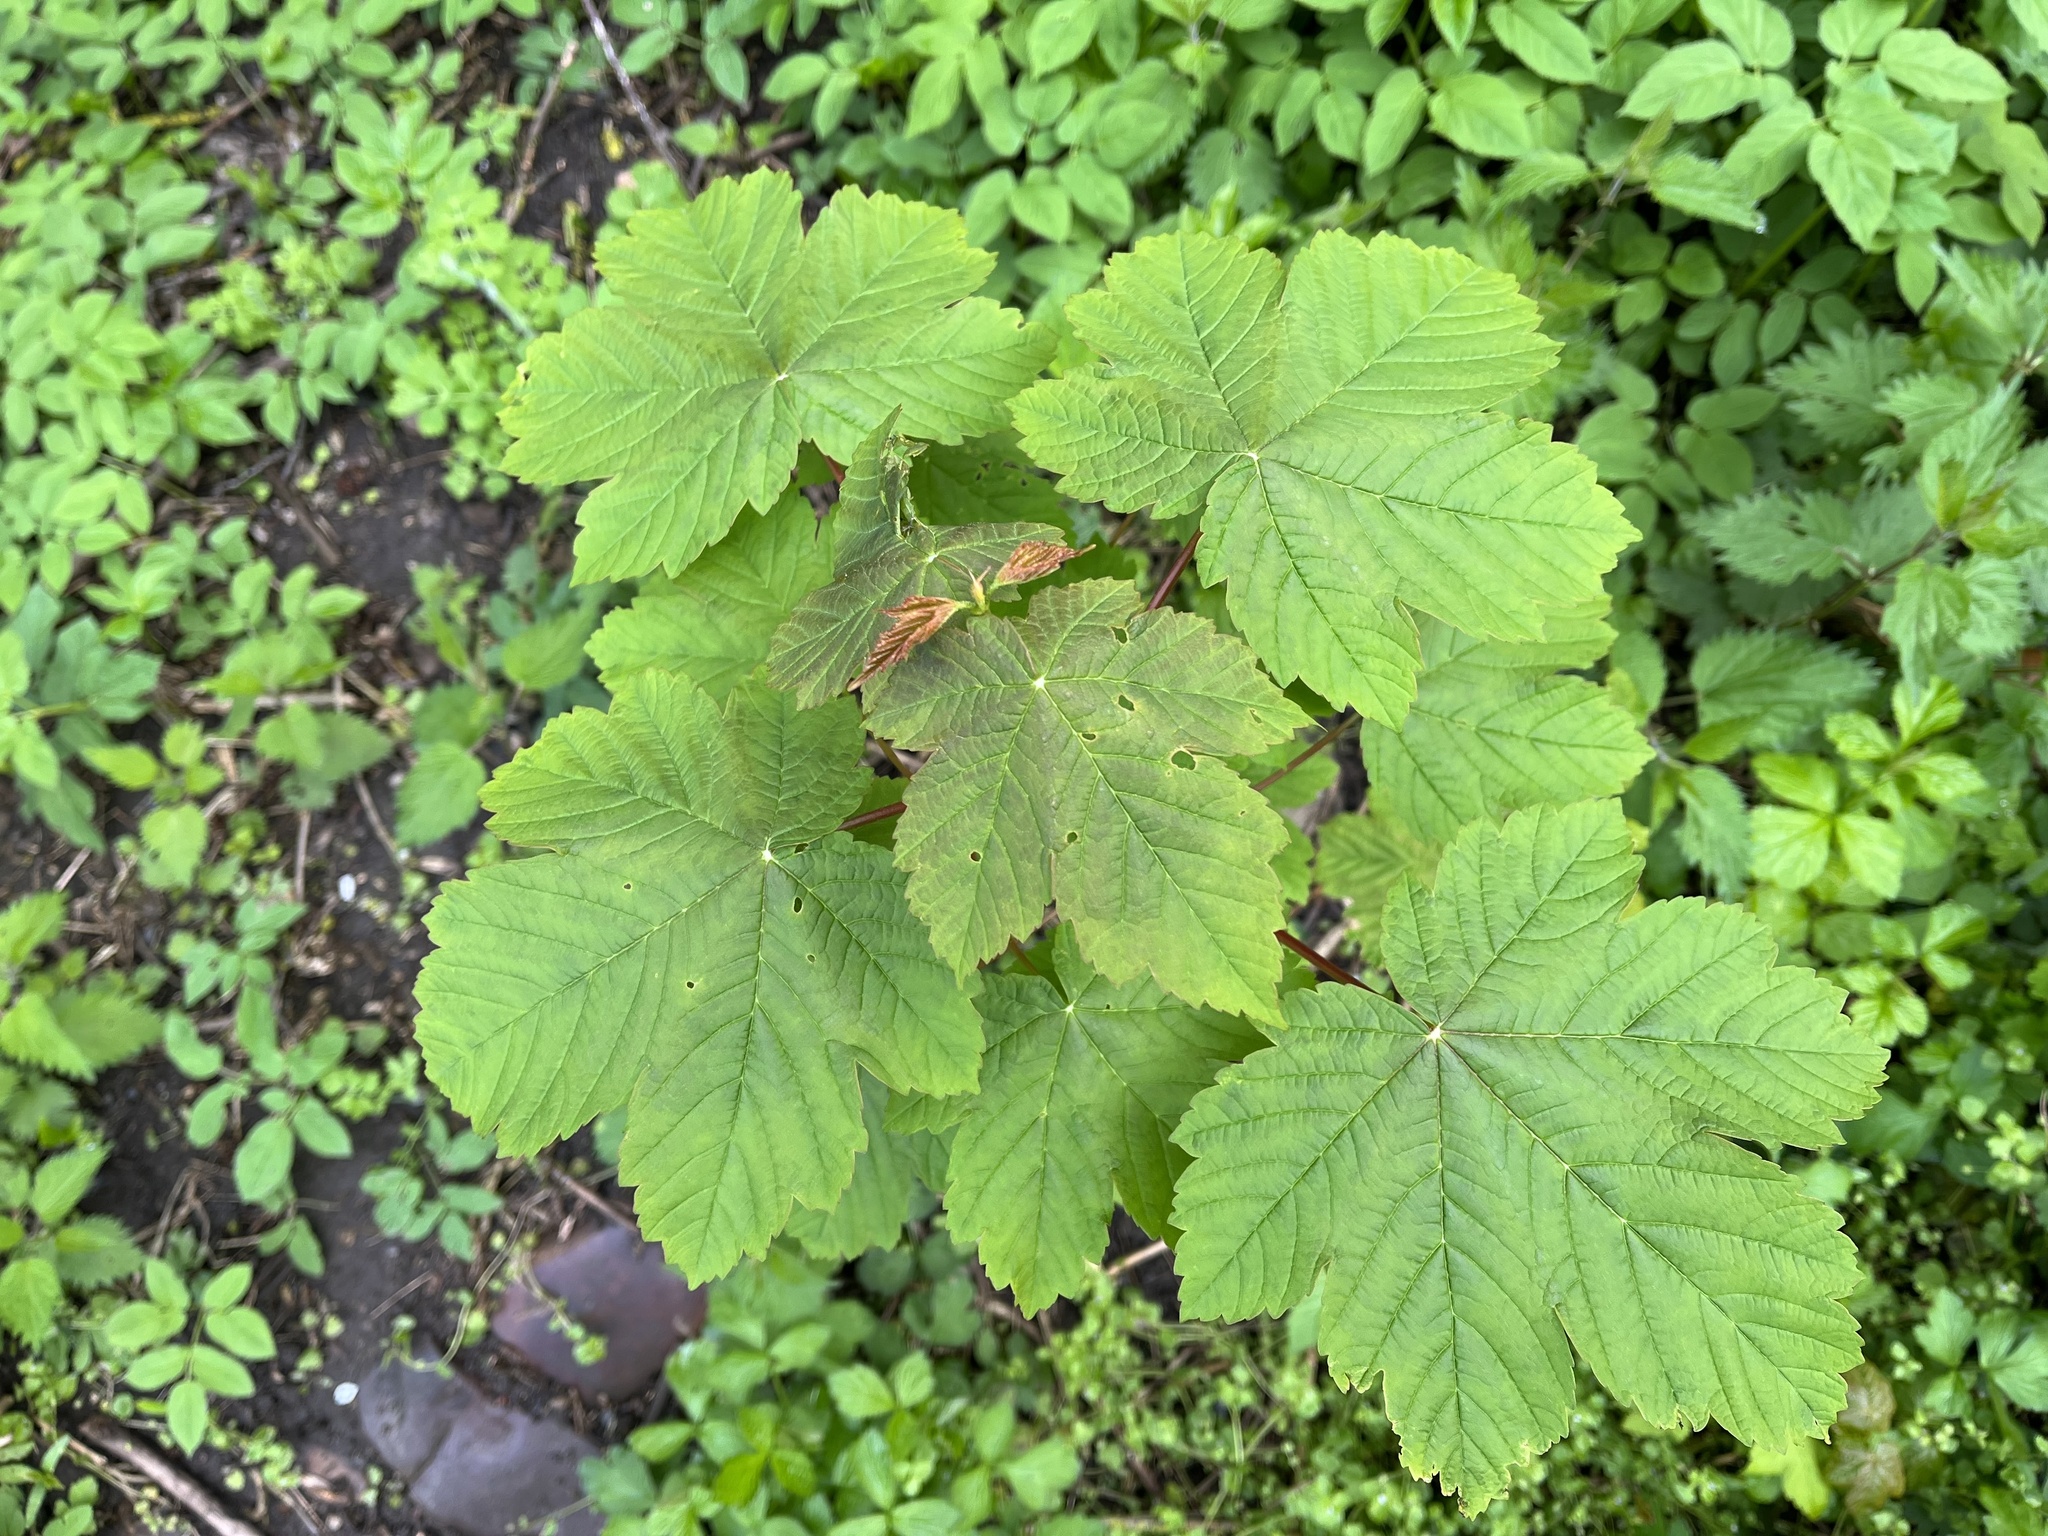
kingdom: Plantae
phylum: Tracheophyta
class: Magnoliopsida
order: Sapindales
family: Sapindaceae
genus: Acer
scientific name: Acer pseudoplatanus
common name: Sycamore
